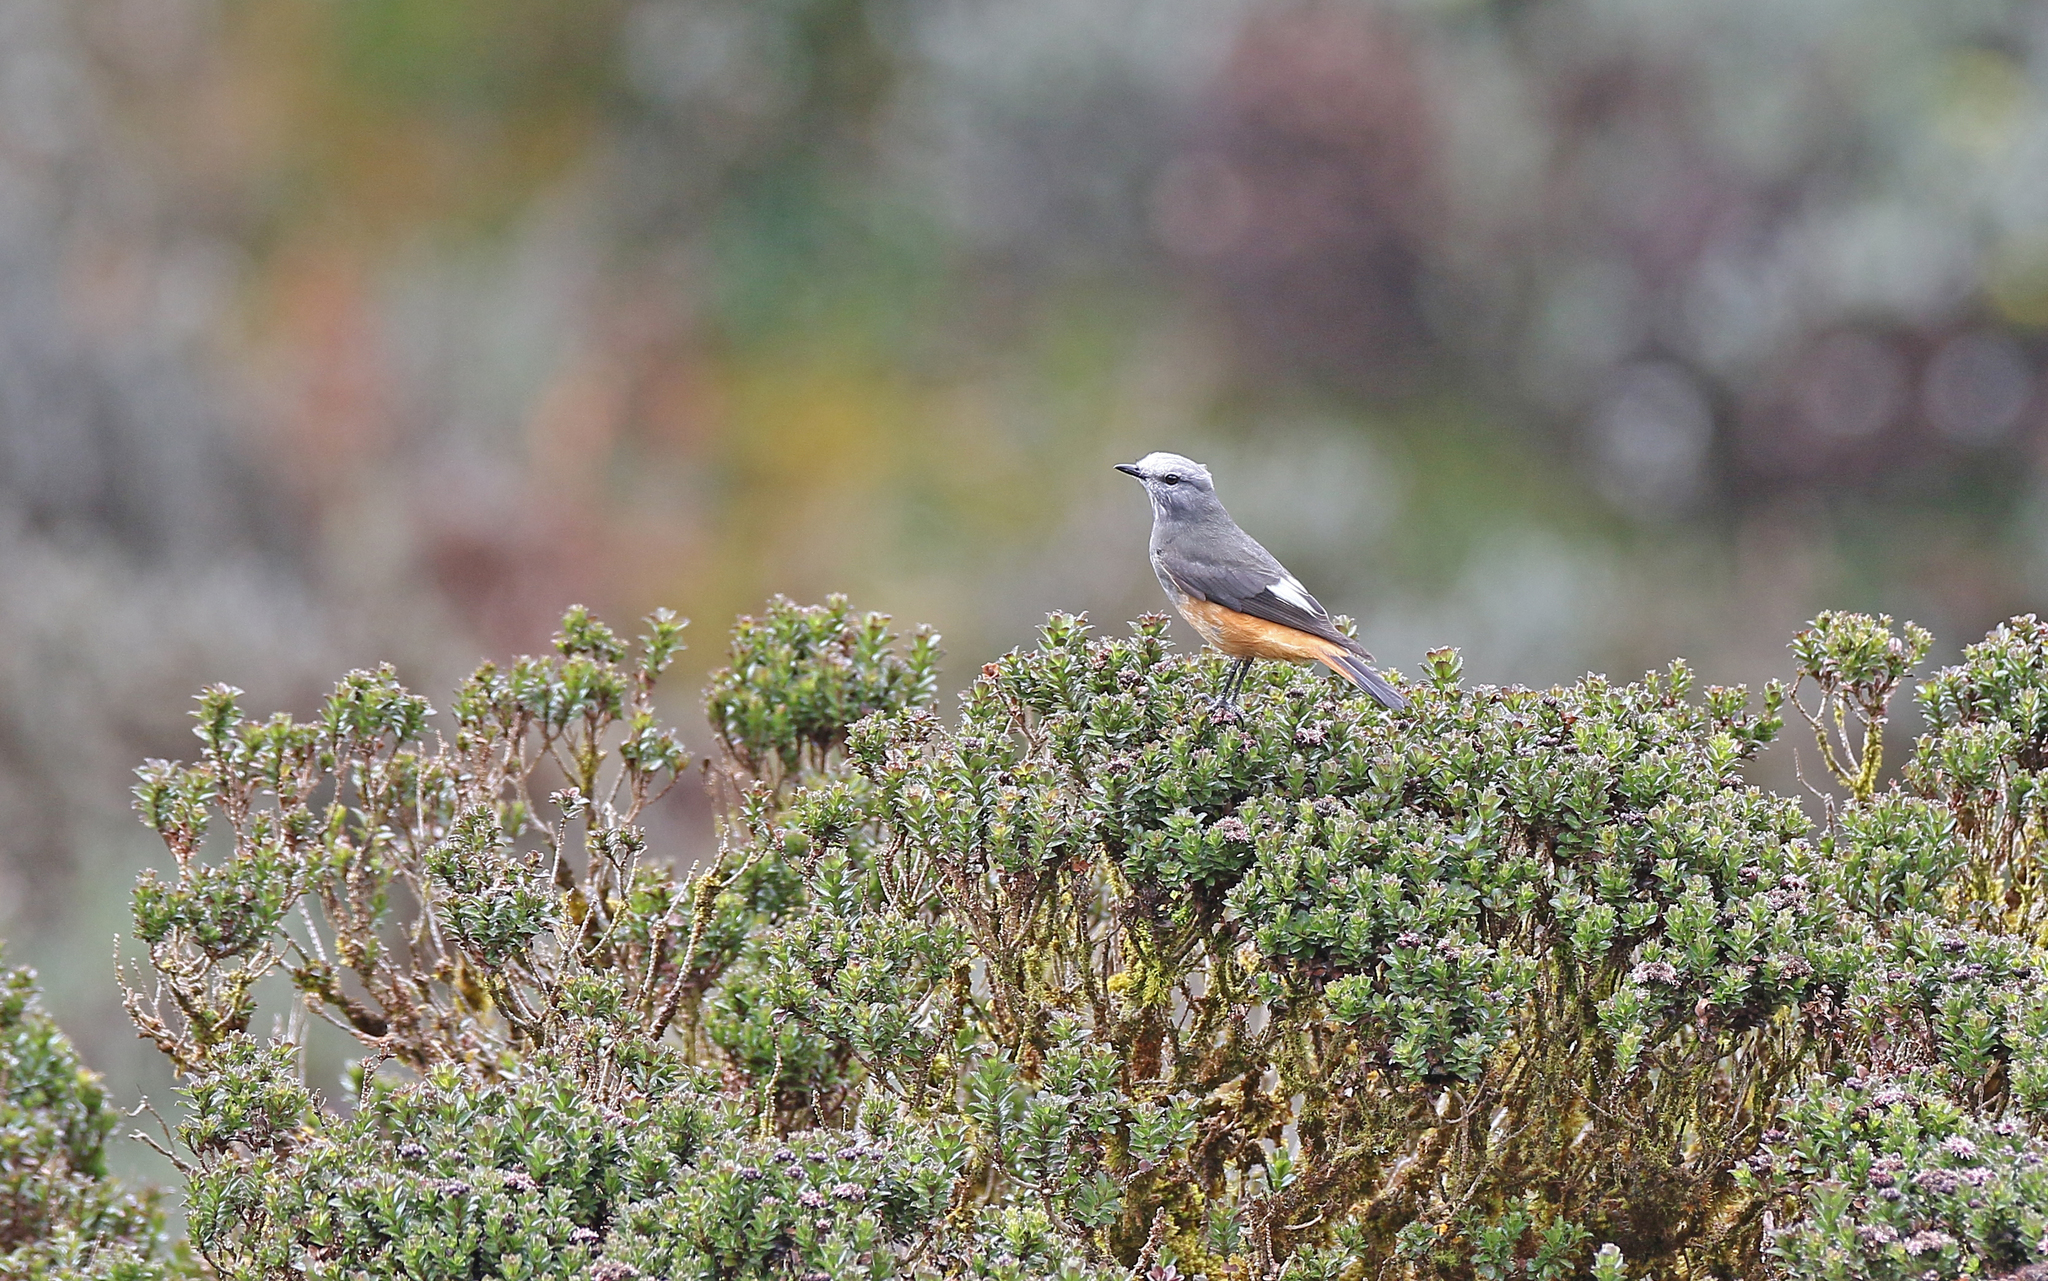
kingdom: Animalia
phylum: Chordata
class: Aves
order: Passeriformes
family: Tyrannidae
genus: Cnemarchus
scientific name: Cnemarchus erythropygius
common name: Red-rumped bush tyrant
